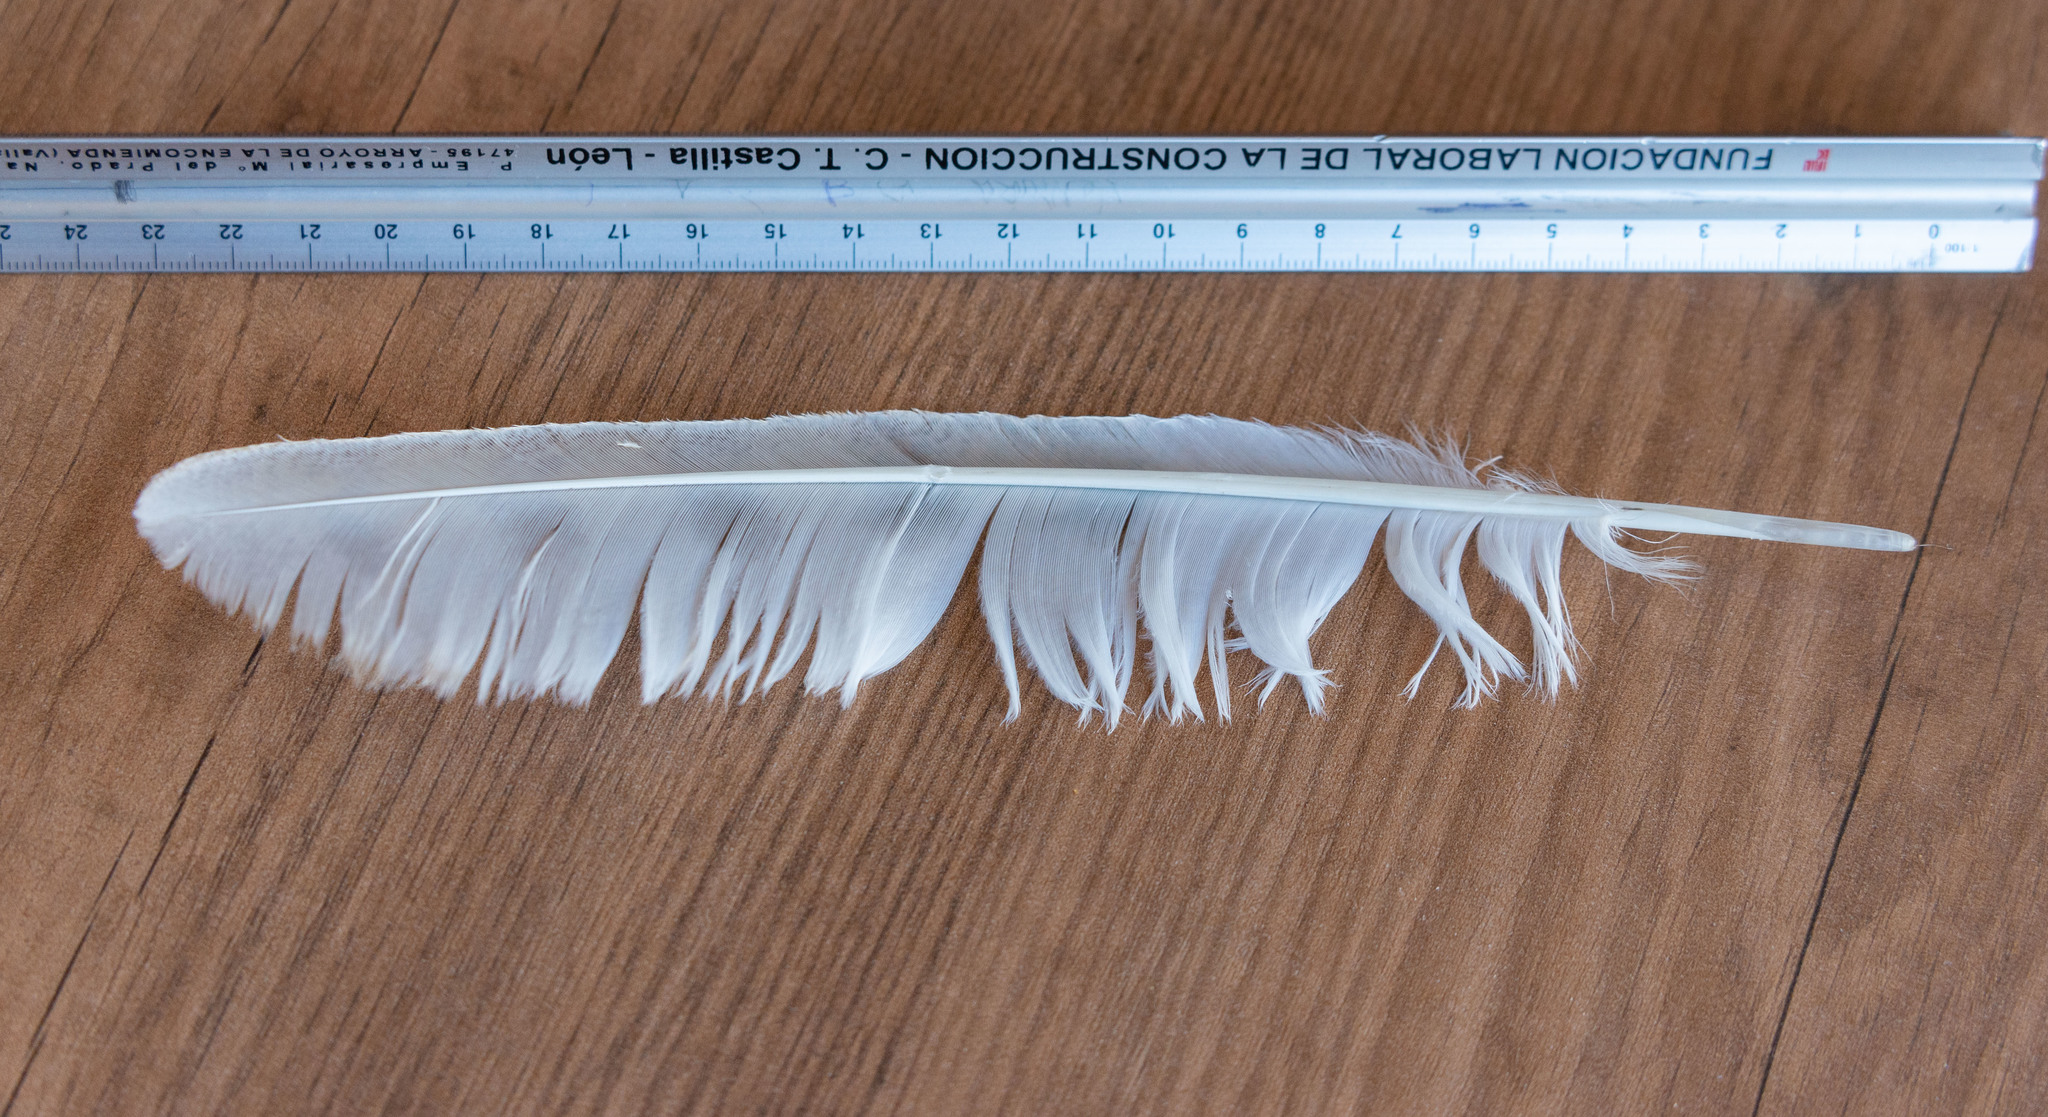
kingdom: Animalia
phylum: Chordata
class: Aves
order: Strigiformes
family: Tytonidae
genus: Tyto
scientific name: Tyto alba
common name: Barn owl
